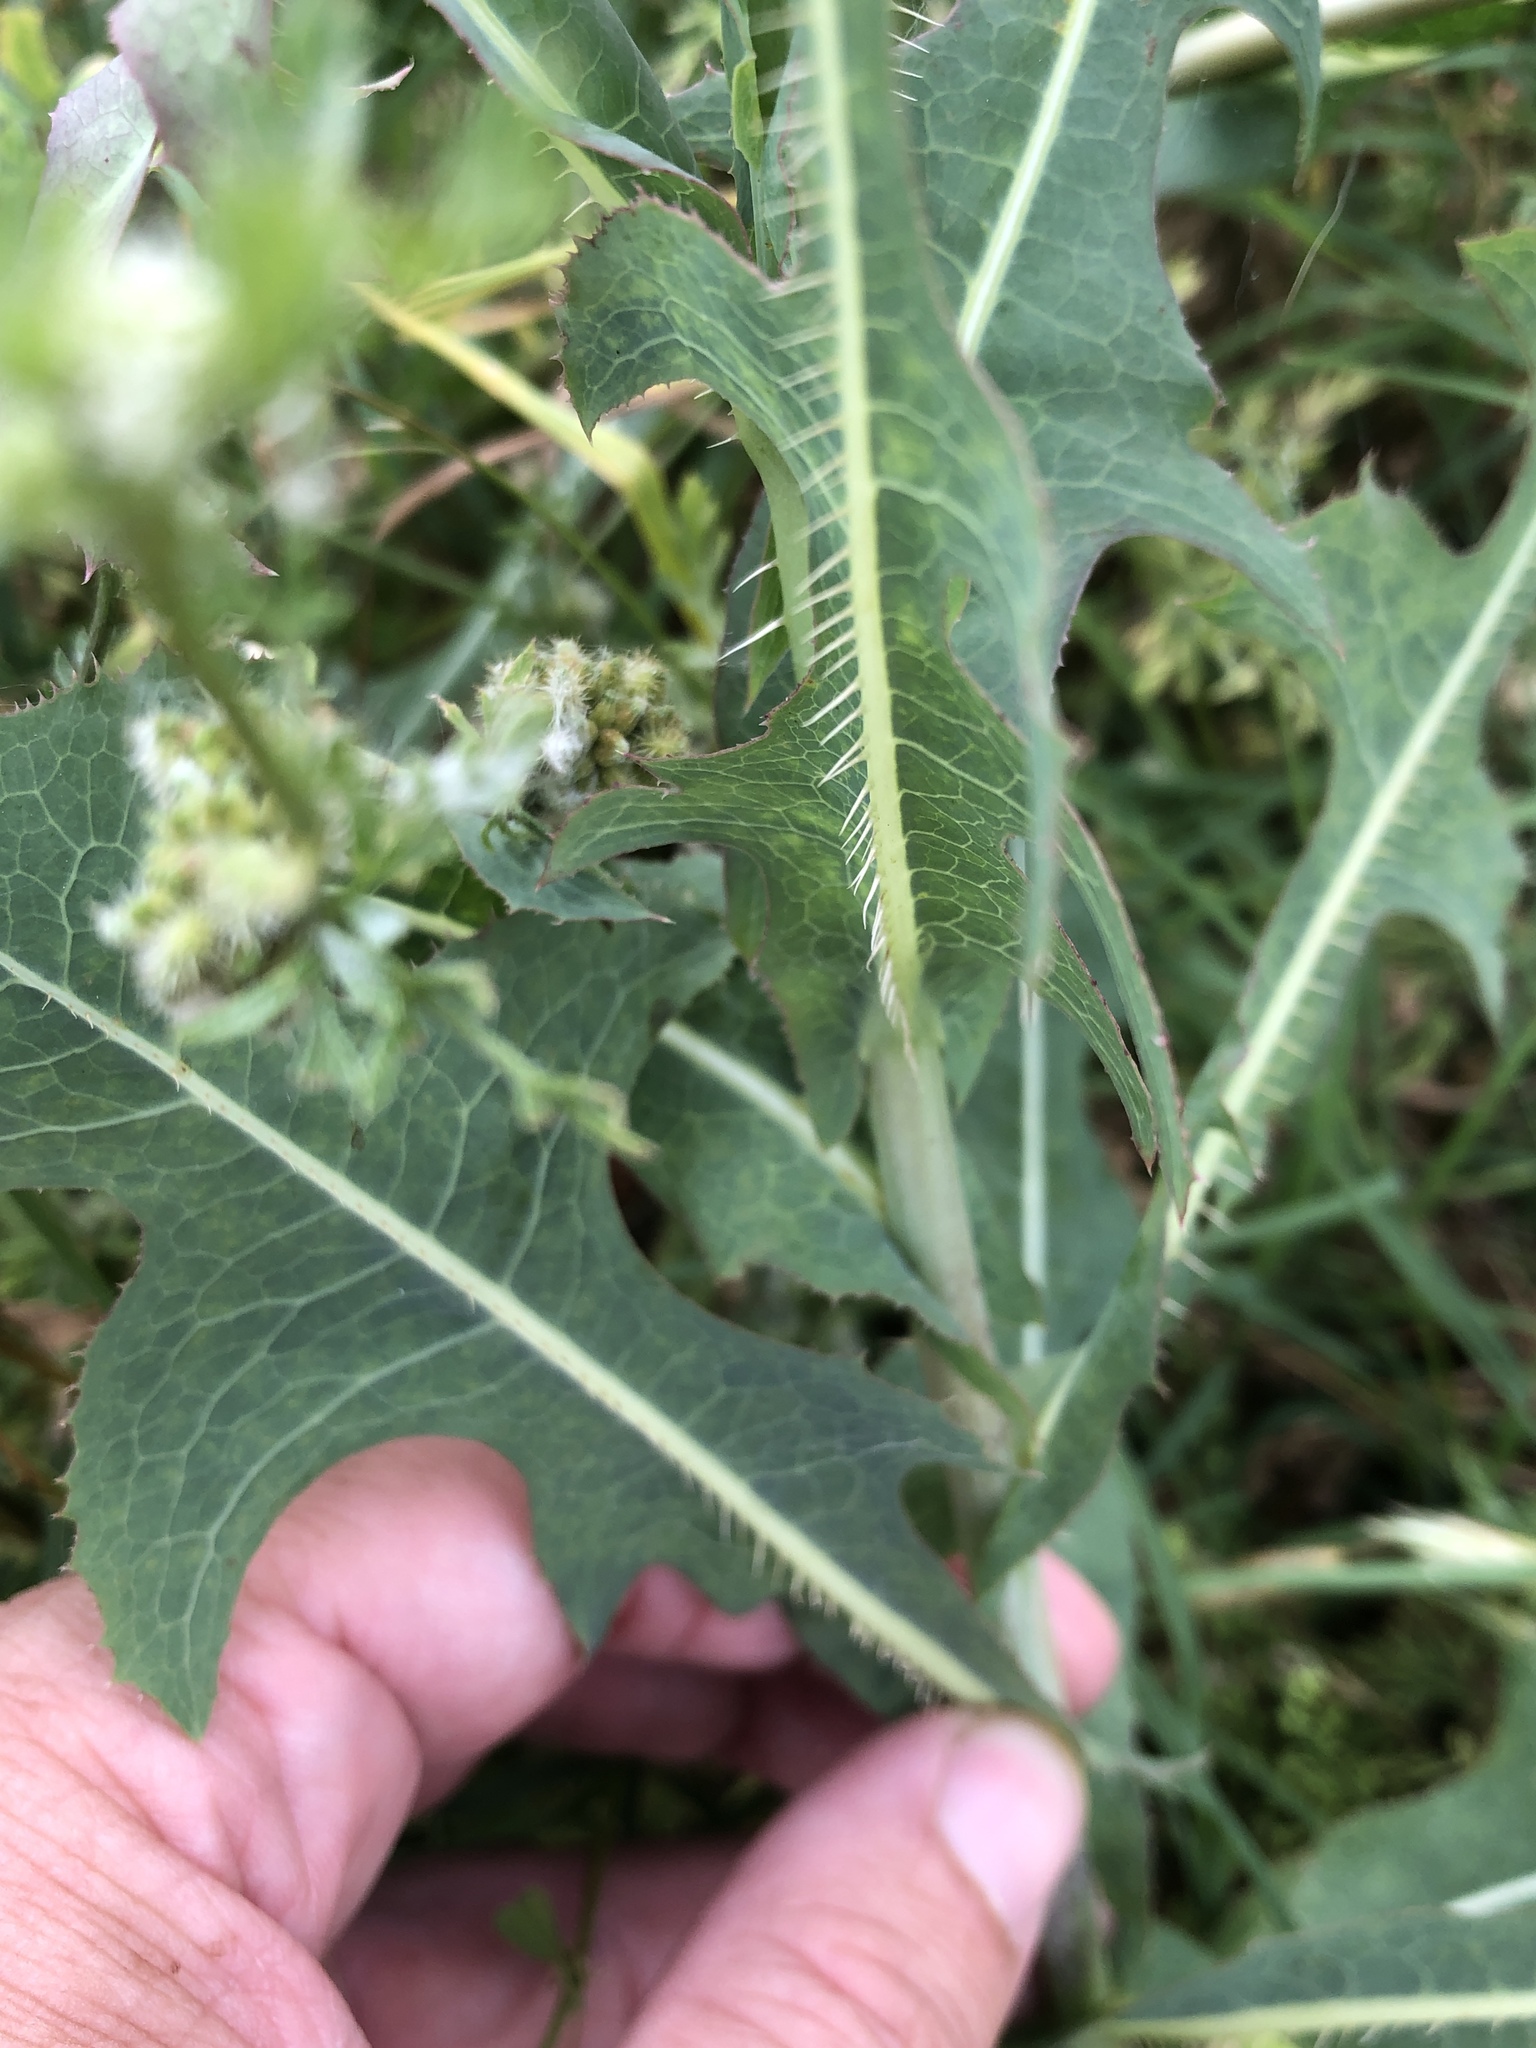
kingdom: Plantae
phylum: Tracheophyta
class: Magnoliopsida
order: Asterales
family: Asteraceae
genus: Lactuca
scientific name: Lactuca serriola
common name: Prickly lettuce
